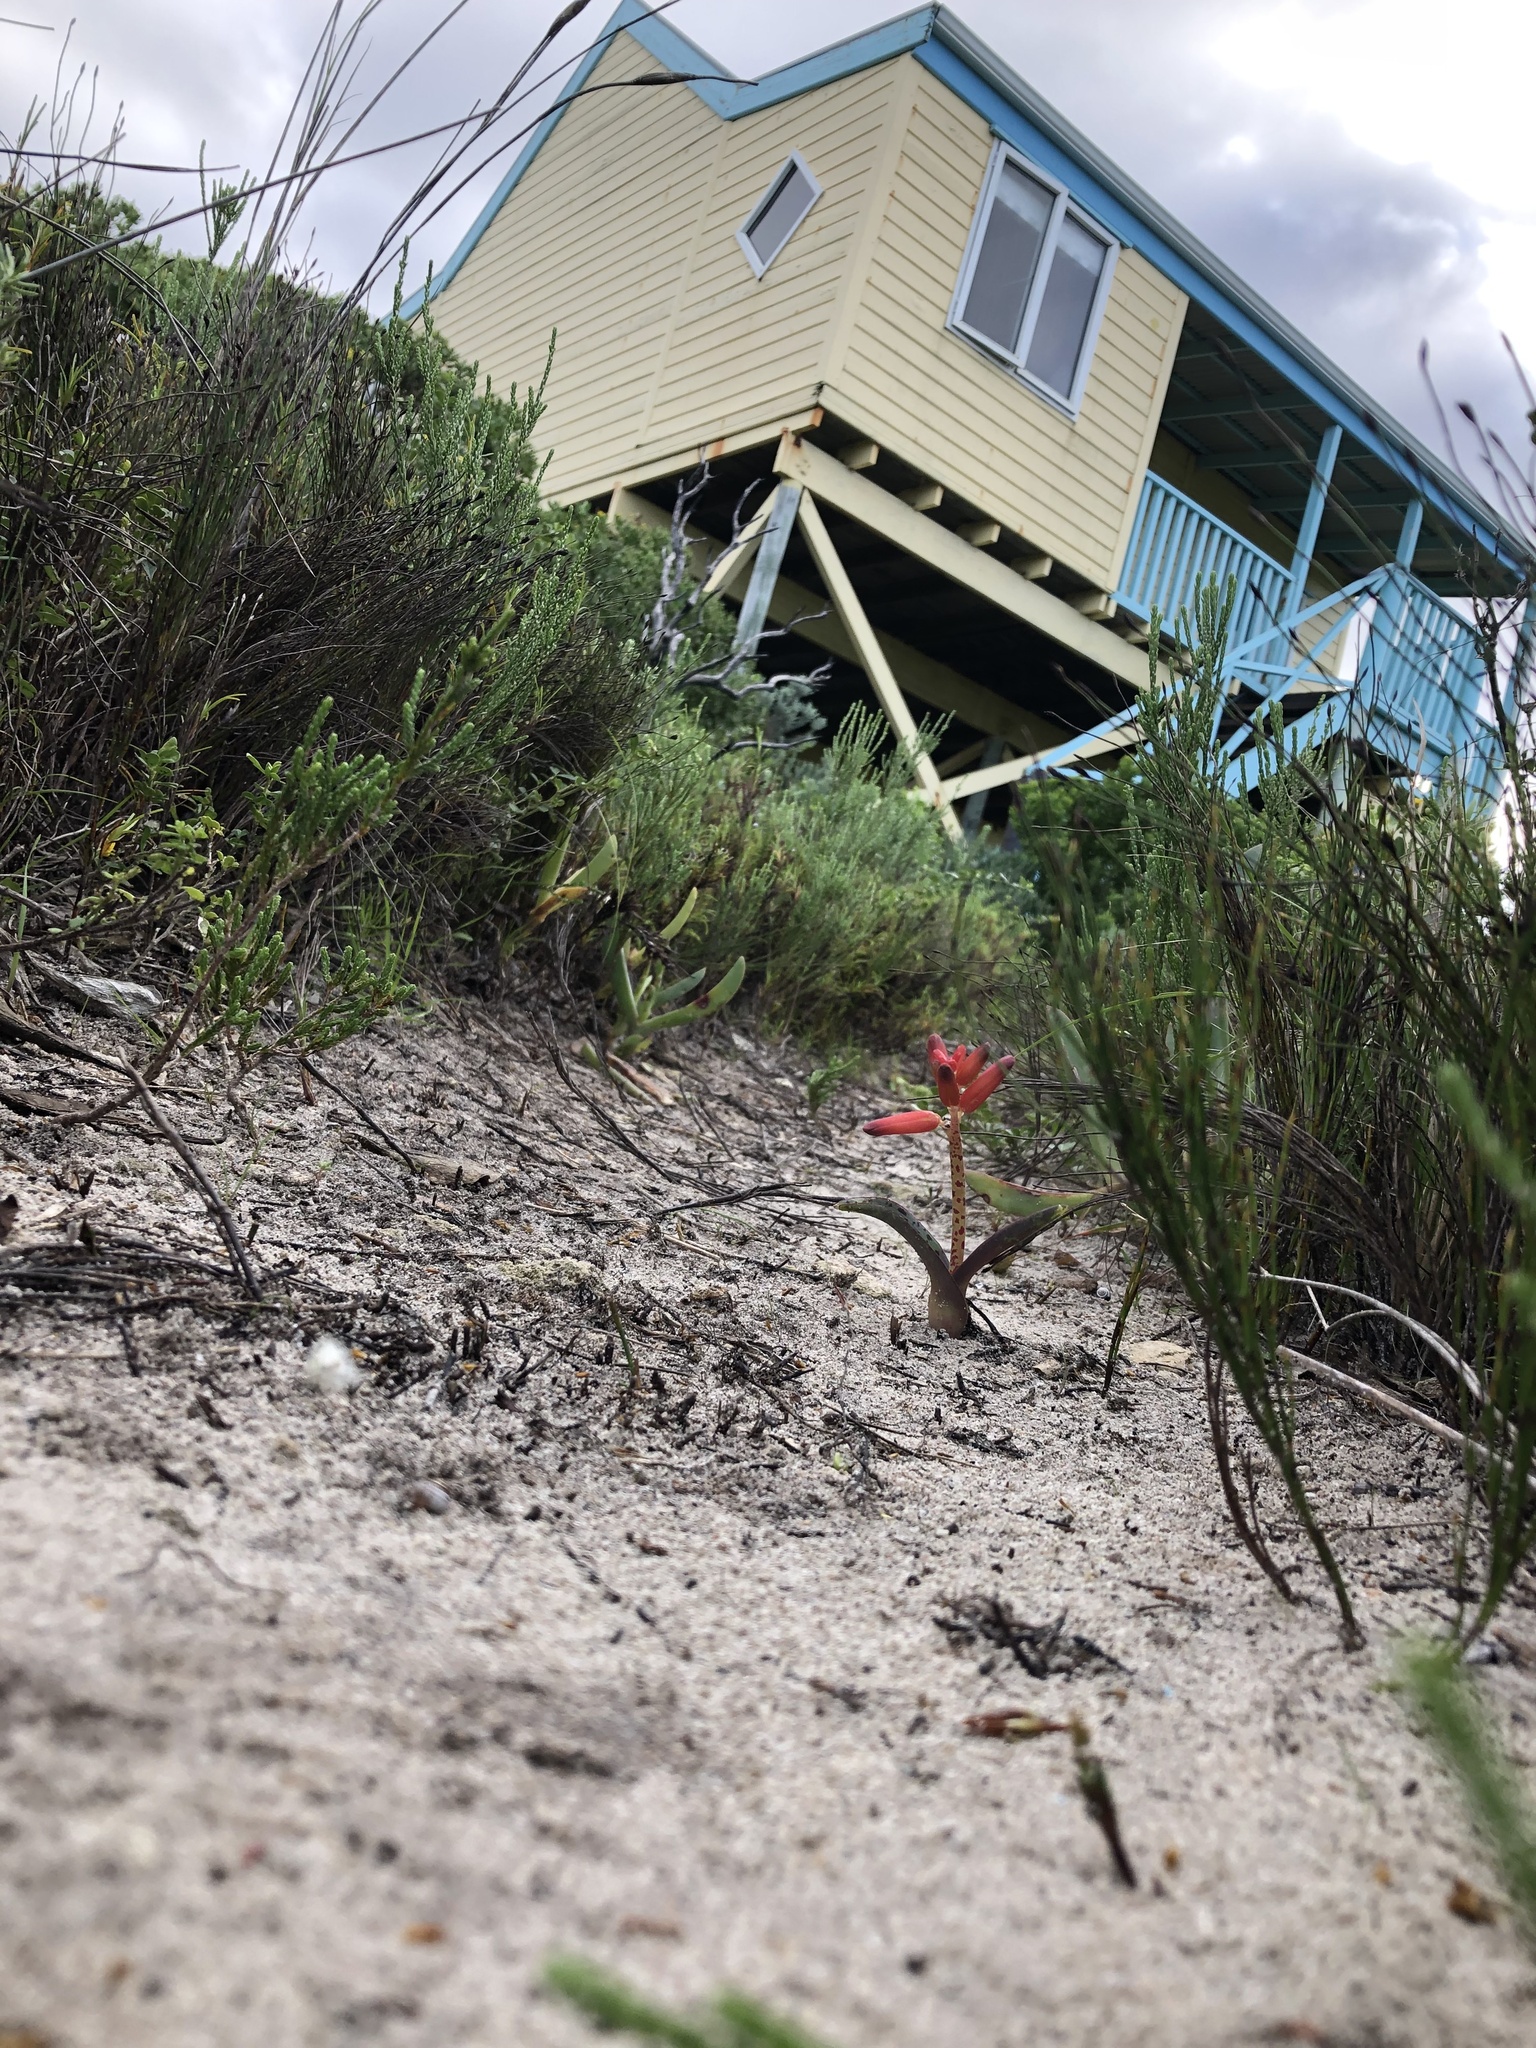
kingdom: Plantae
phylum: Tracheophyta
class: Liliopsida
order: Asparagales
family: Asparagaceae
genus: Lachenalia
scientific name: Lachenalia bulbifera
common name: Red lachenalia
